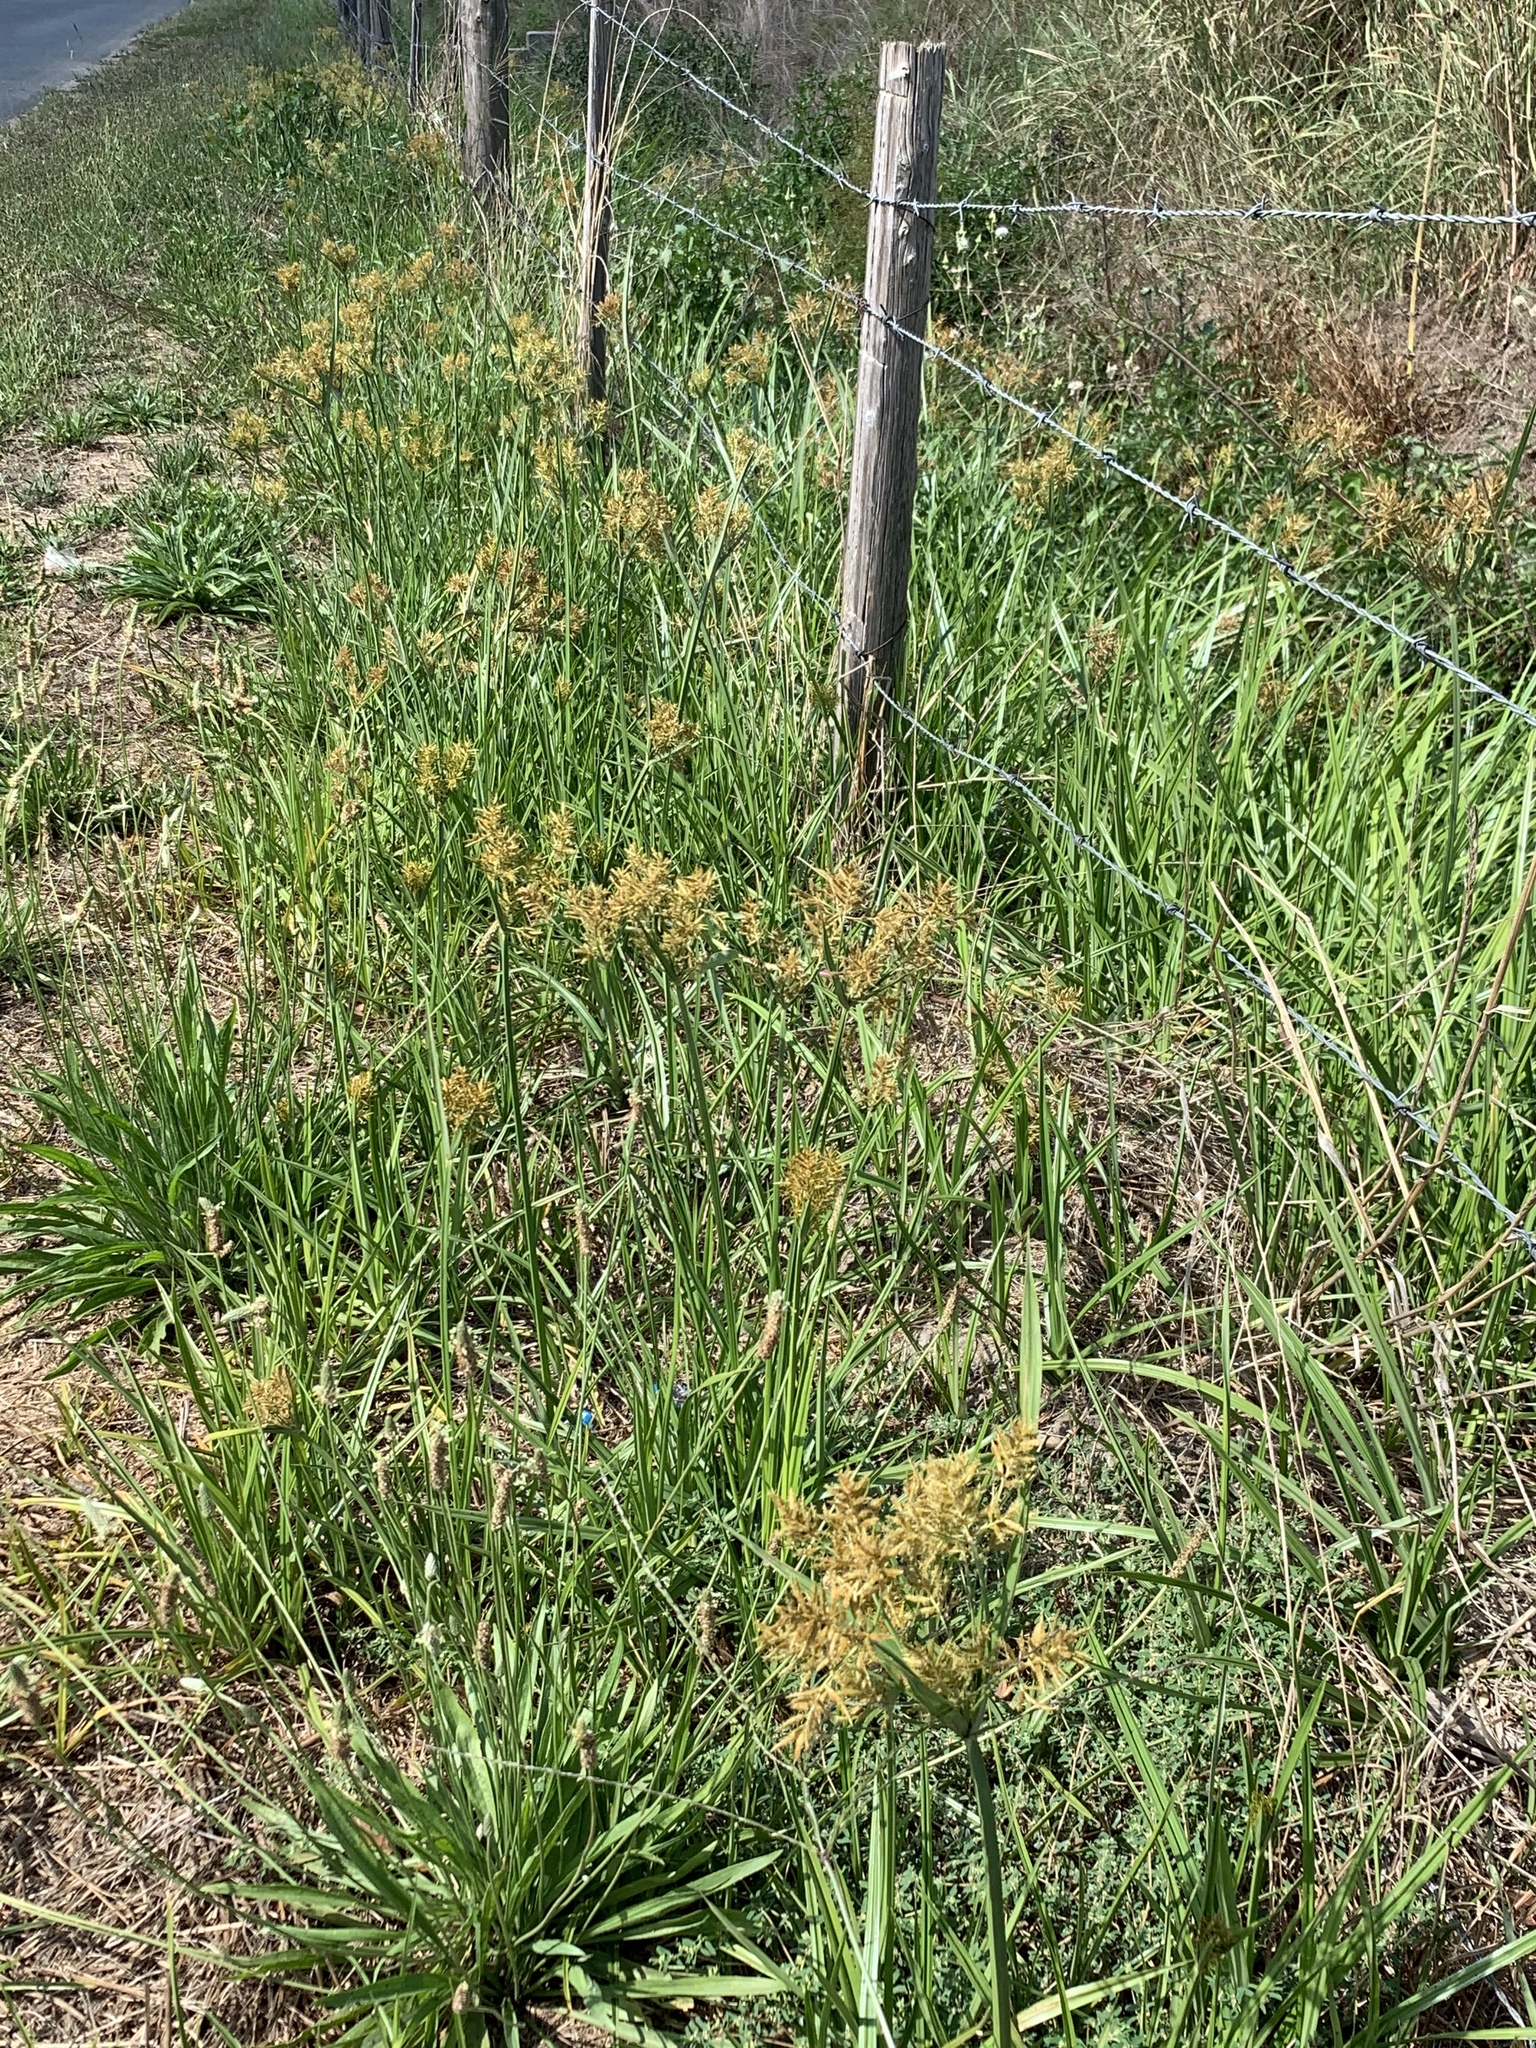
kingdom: Plantae
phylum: Tracheophyta
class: Liliopsida
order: Poales
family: Cyperaceae
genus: Cyperus
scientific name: Cyperus esculentus
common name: Yellow nutsedge
